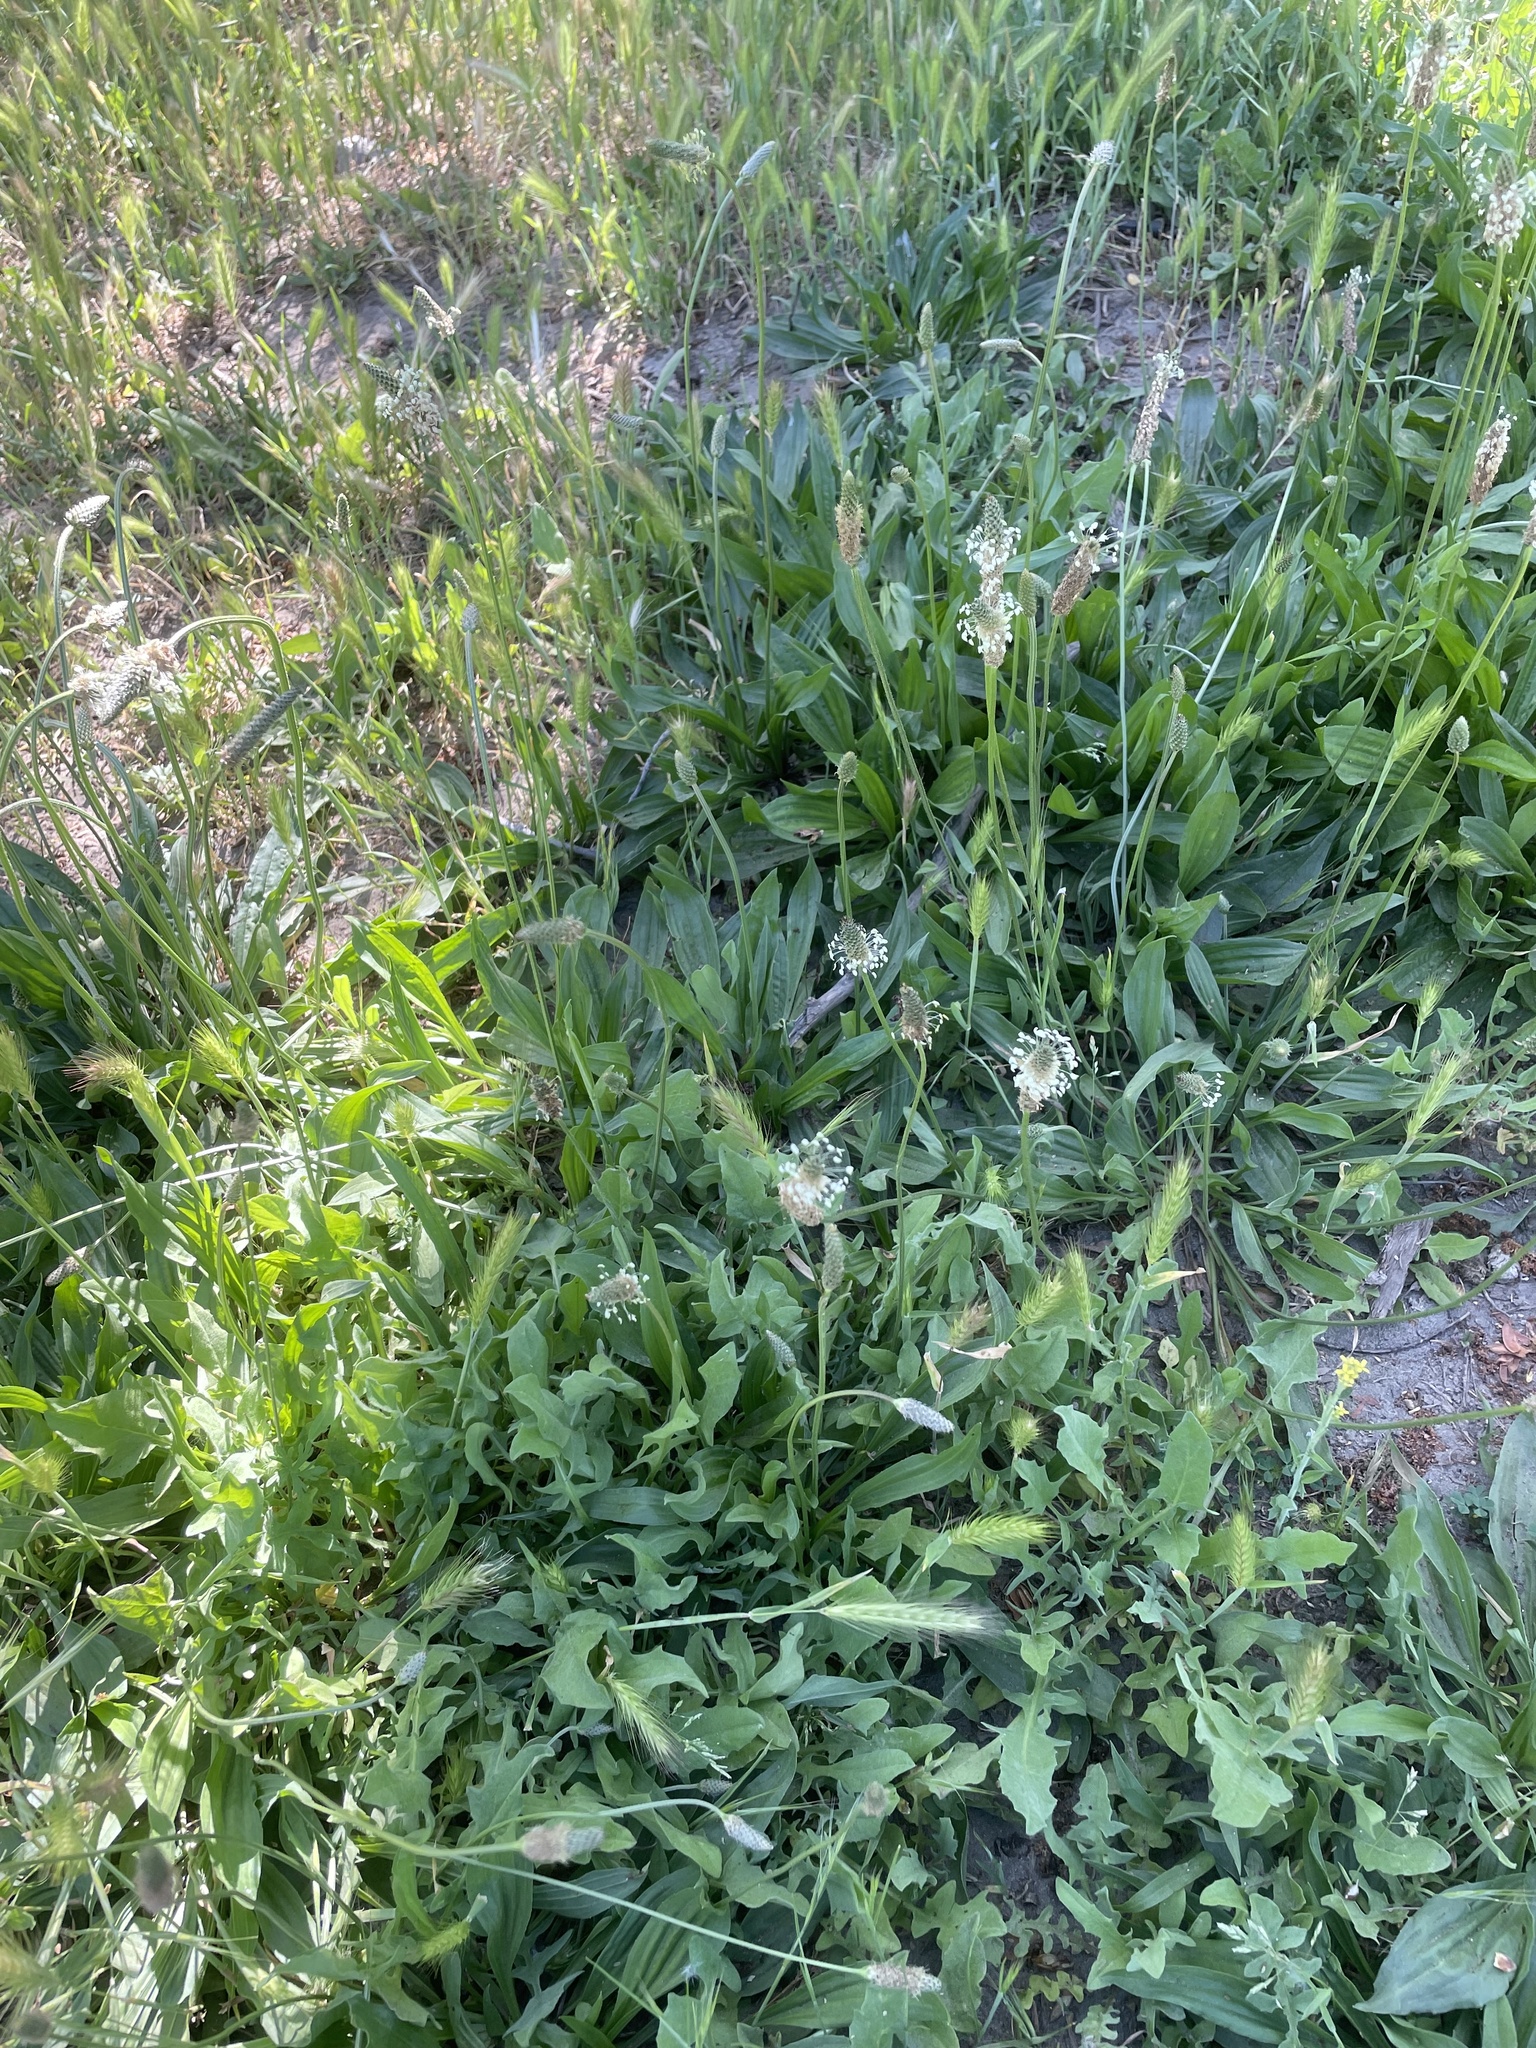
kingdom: Plantae
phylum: Tracheophyta
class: Magnoliopsida
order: Lamiales
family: Plantaginaceae
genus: Plantago
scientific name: Plantago lanceolata
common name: Ribwort plantain
